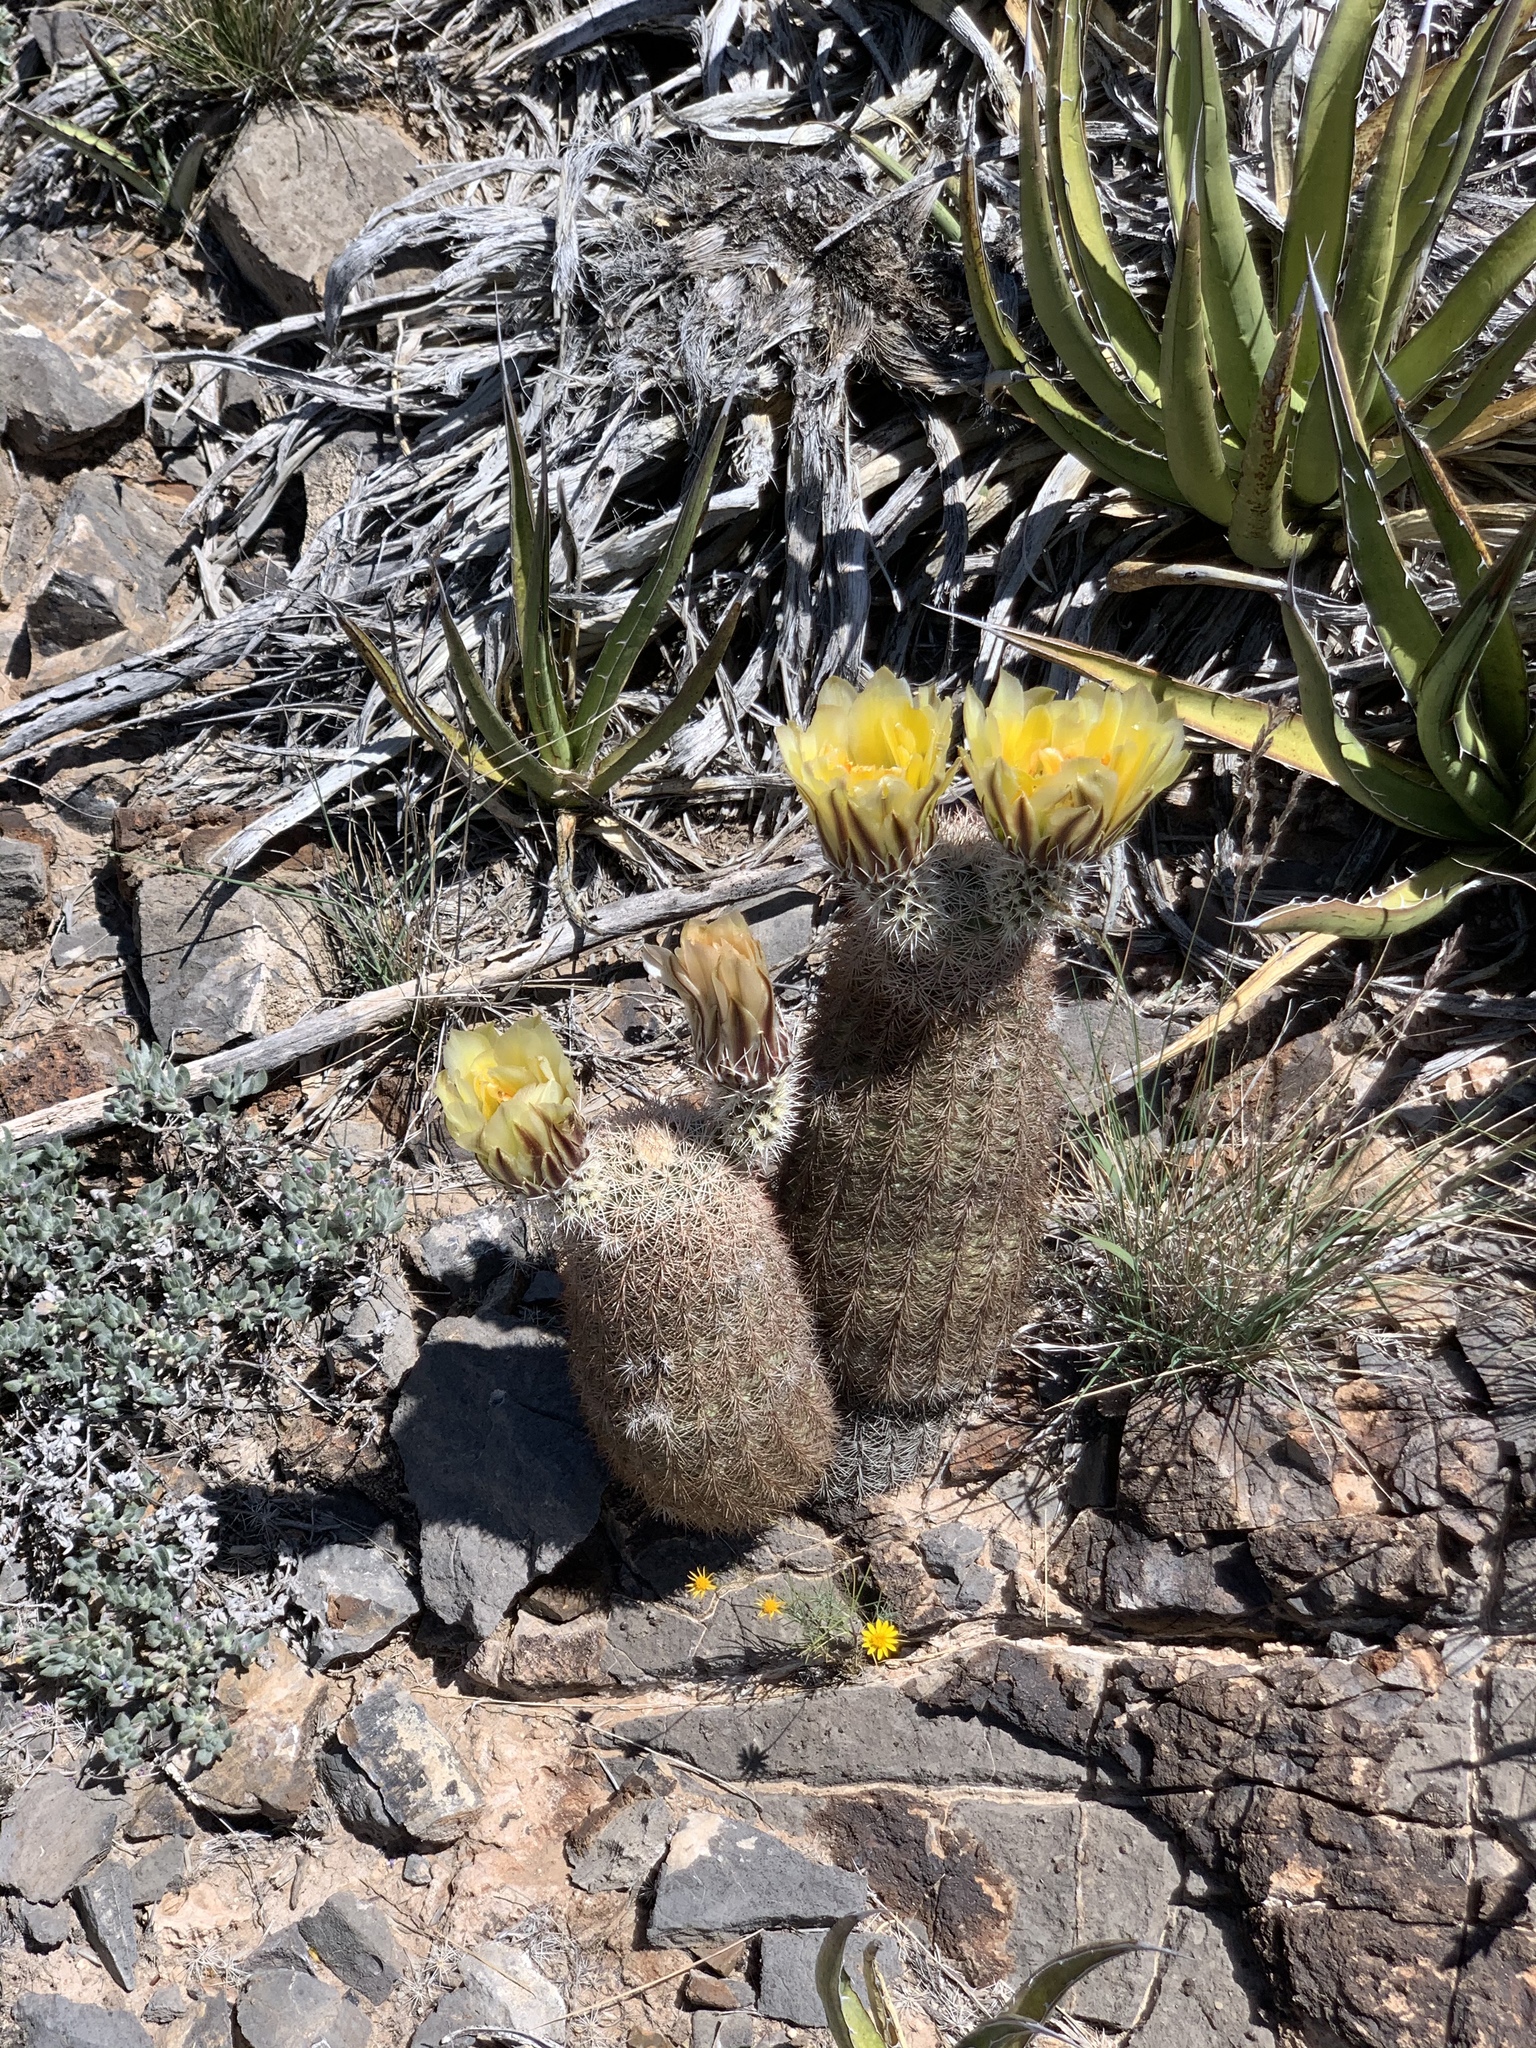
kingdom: Plantae
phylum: Tracheophyta
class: Magnoliopsida
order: Caryophyllales
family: Cactaceae
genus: Echinocereus
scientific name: Echinocereus dasyacanthus
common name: Spiny hedgehog cactus
